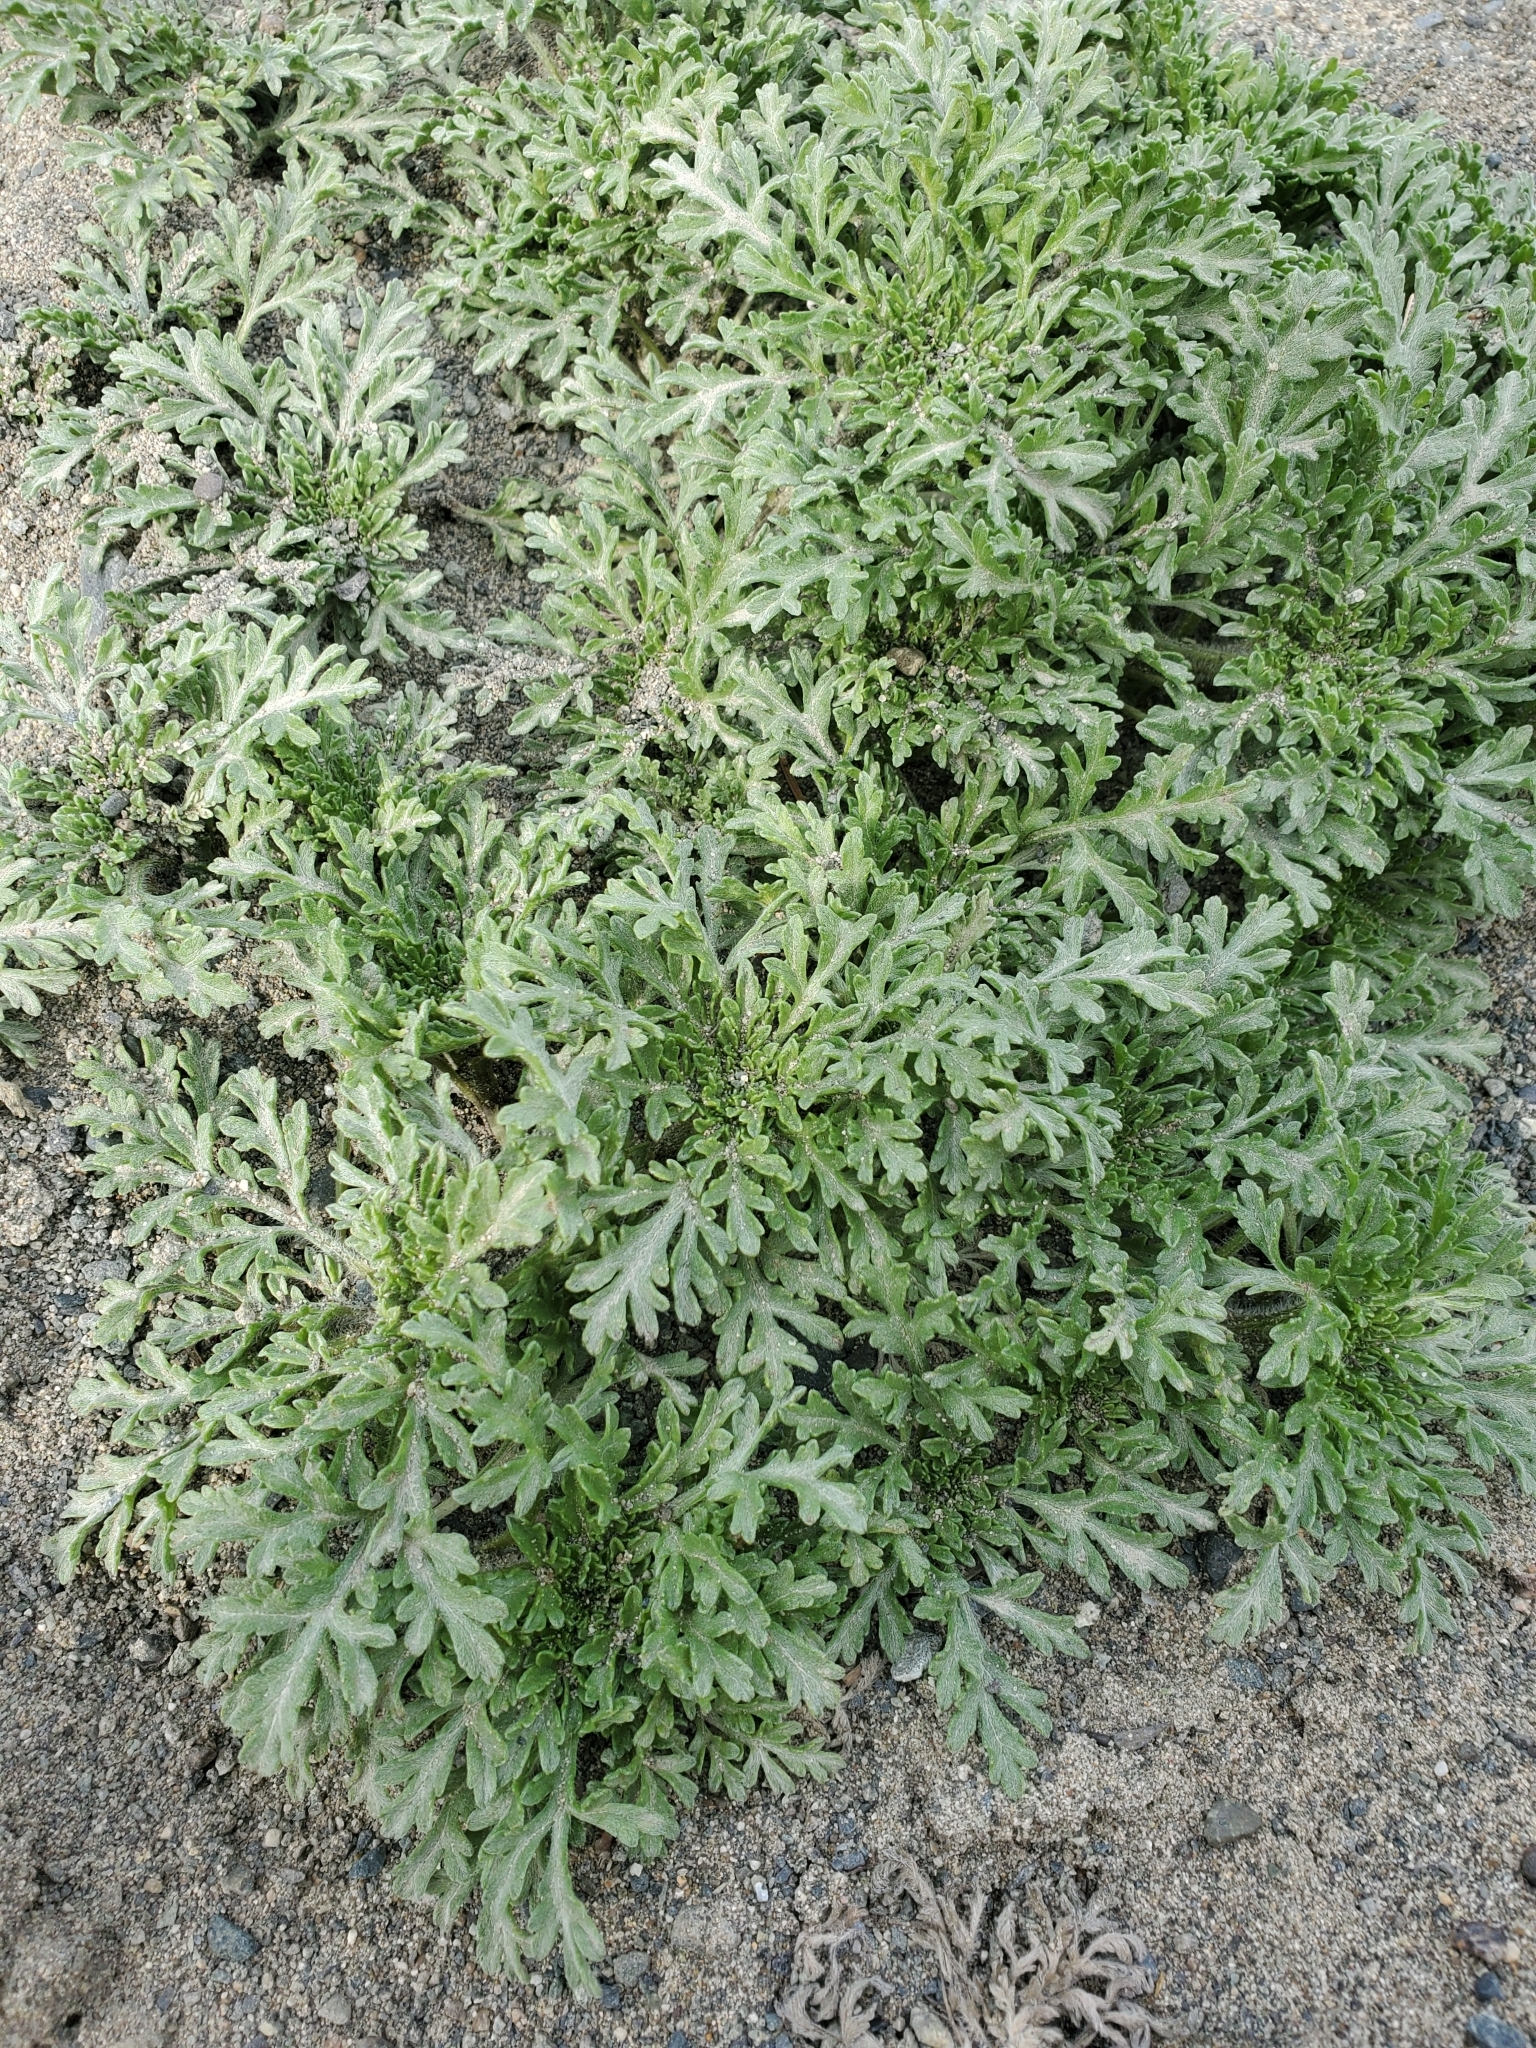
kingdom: Plantae
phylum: Tracheophyta
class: Magnoliopsida
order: Asterales
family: Asteraceae
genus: Ambrosia
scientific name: Ambrosia chamissonis
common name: Beachbur
